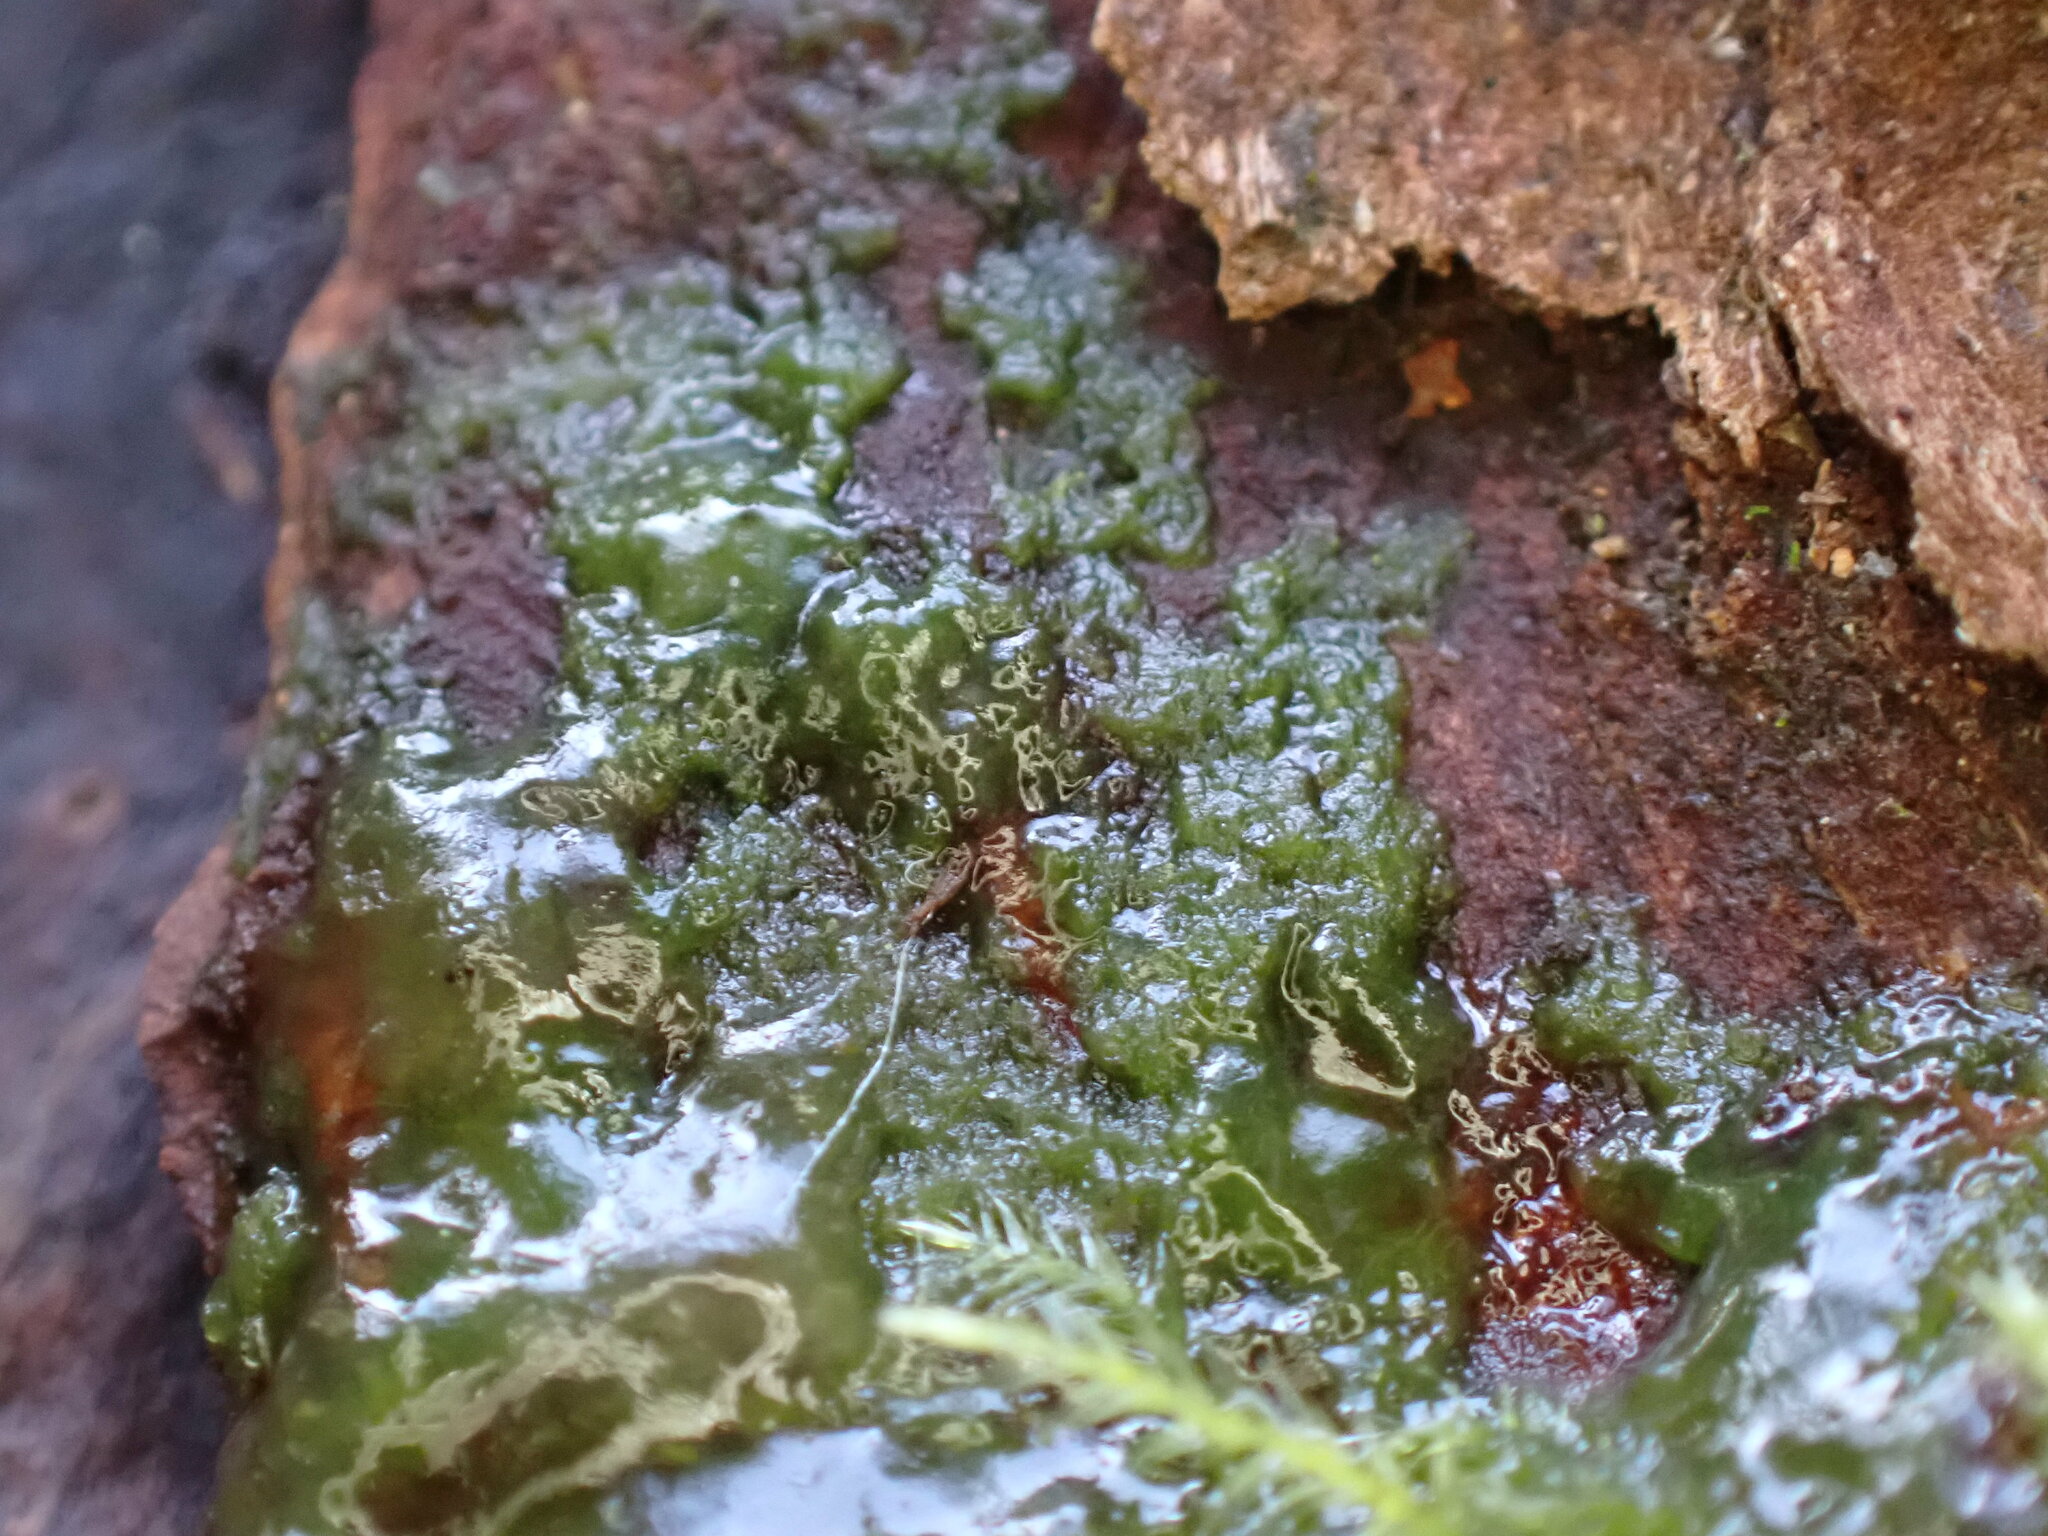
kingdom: Plantae
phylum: Charophyta
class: Zygnematophyceae
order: Zygnematales
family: Mesotaeniaceae
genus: Mesotaenium
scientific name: Mesotaenium macrococcum
